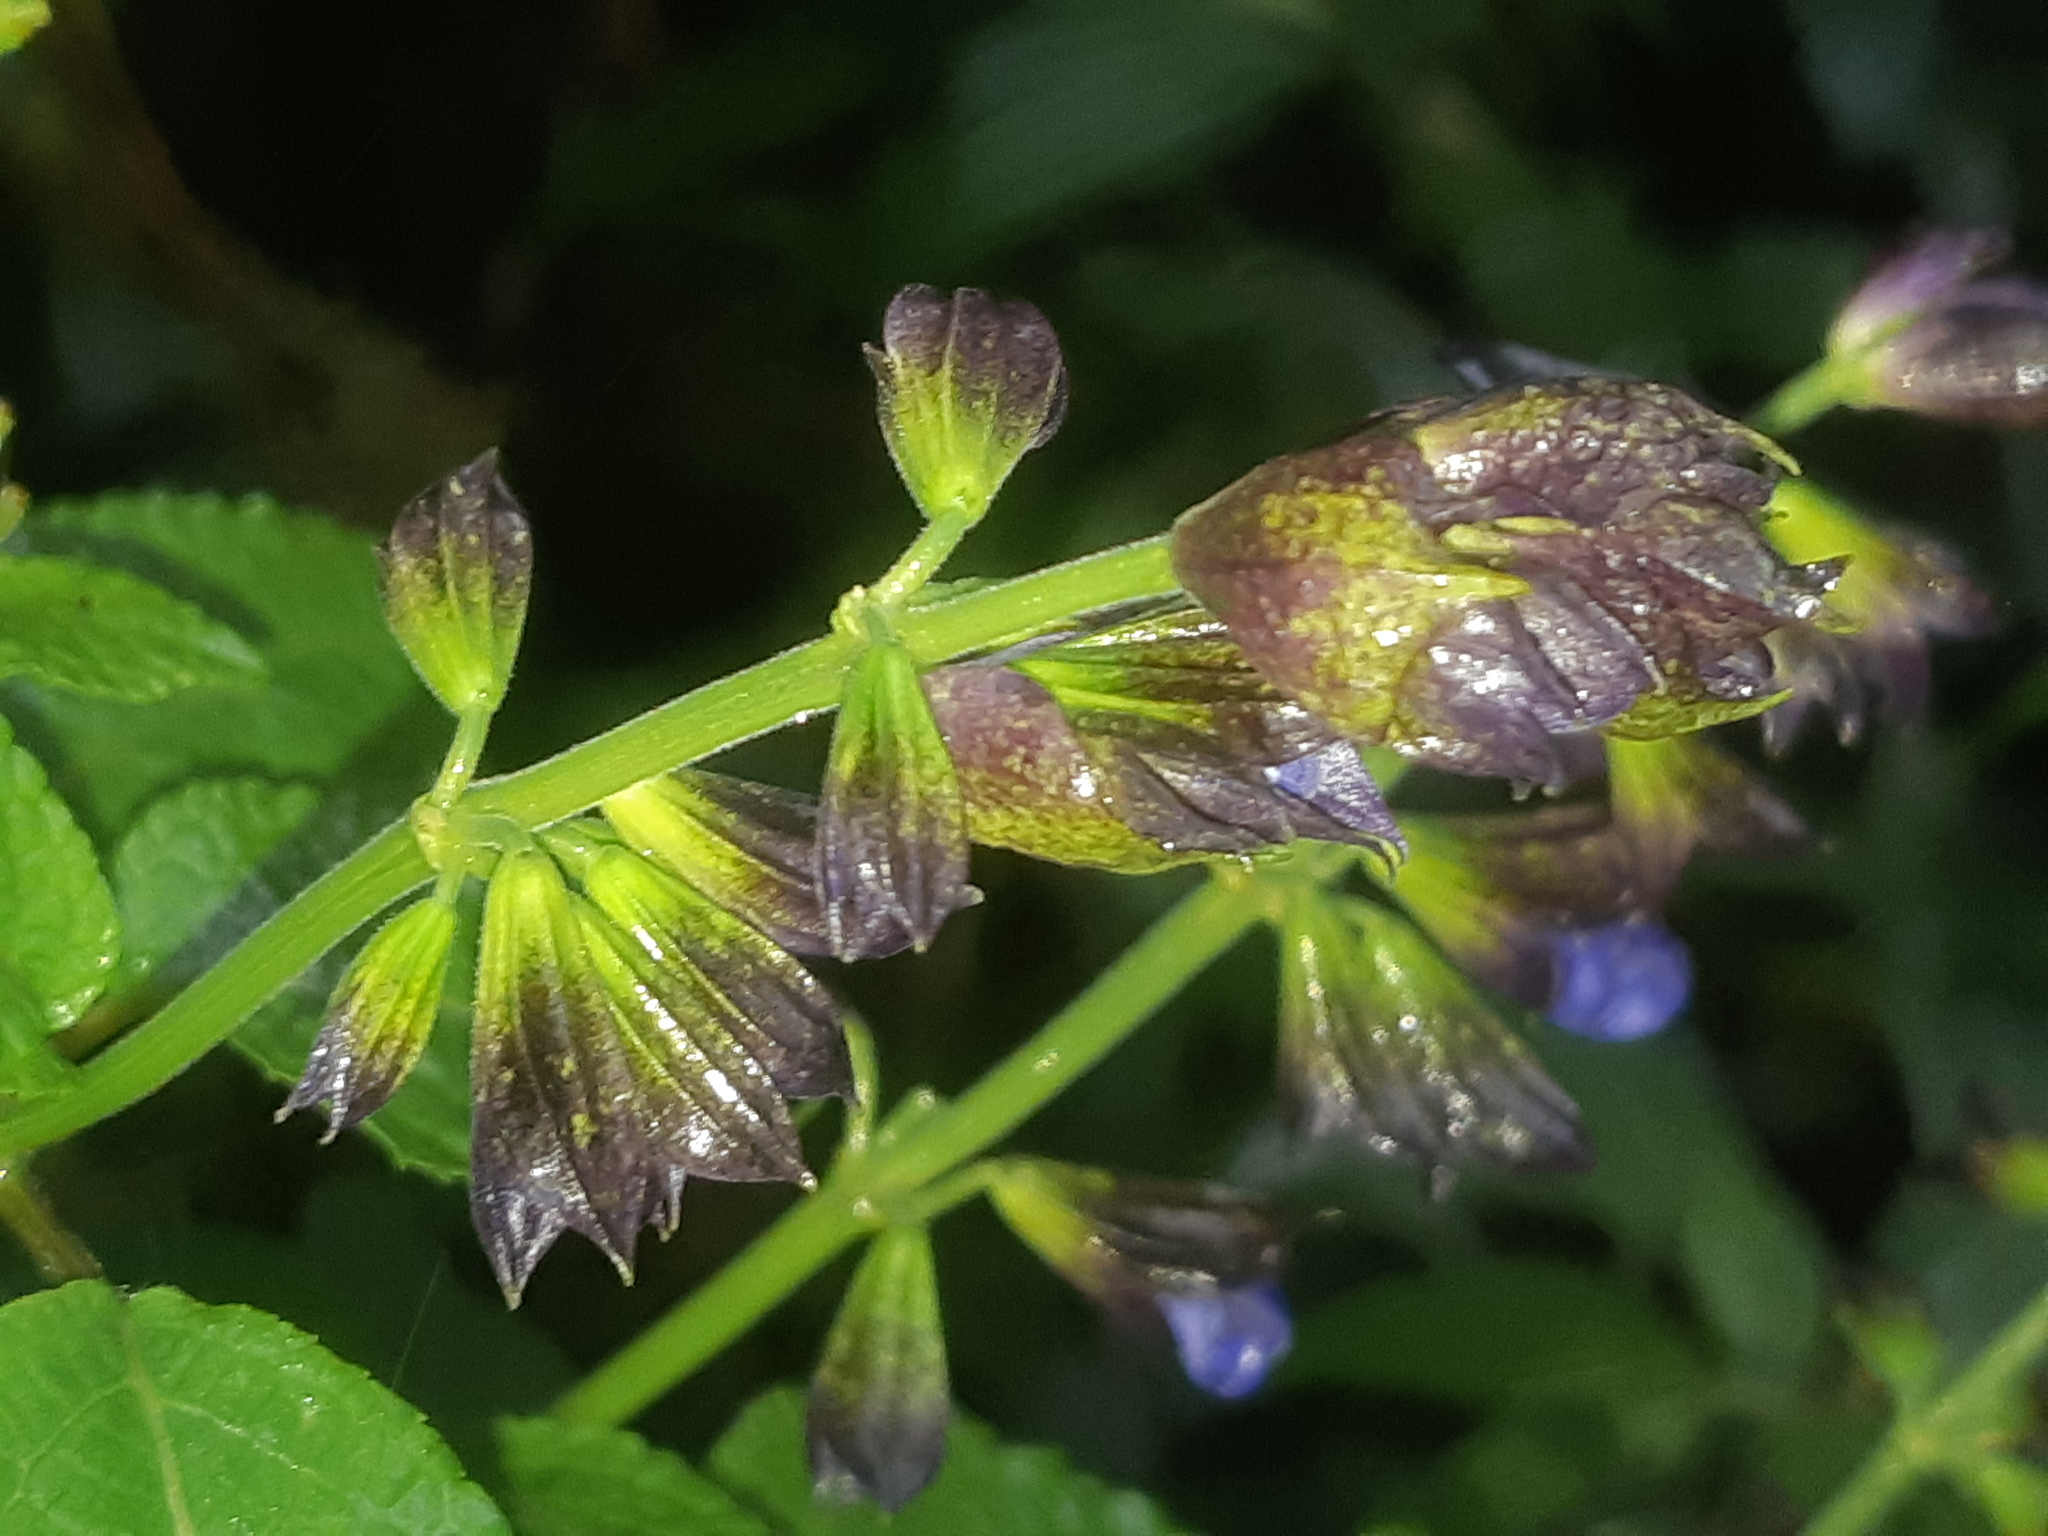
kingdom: Plantae
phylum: Tracheophyta
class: Magnoliopsida
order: Lamiales
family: Lamiaceae
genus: Salvia
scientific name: Salvia pichinchensis
